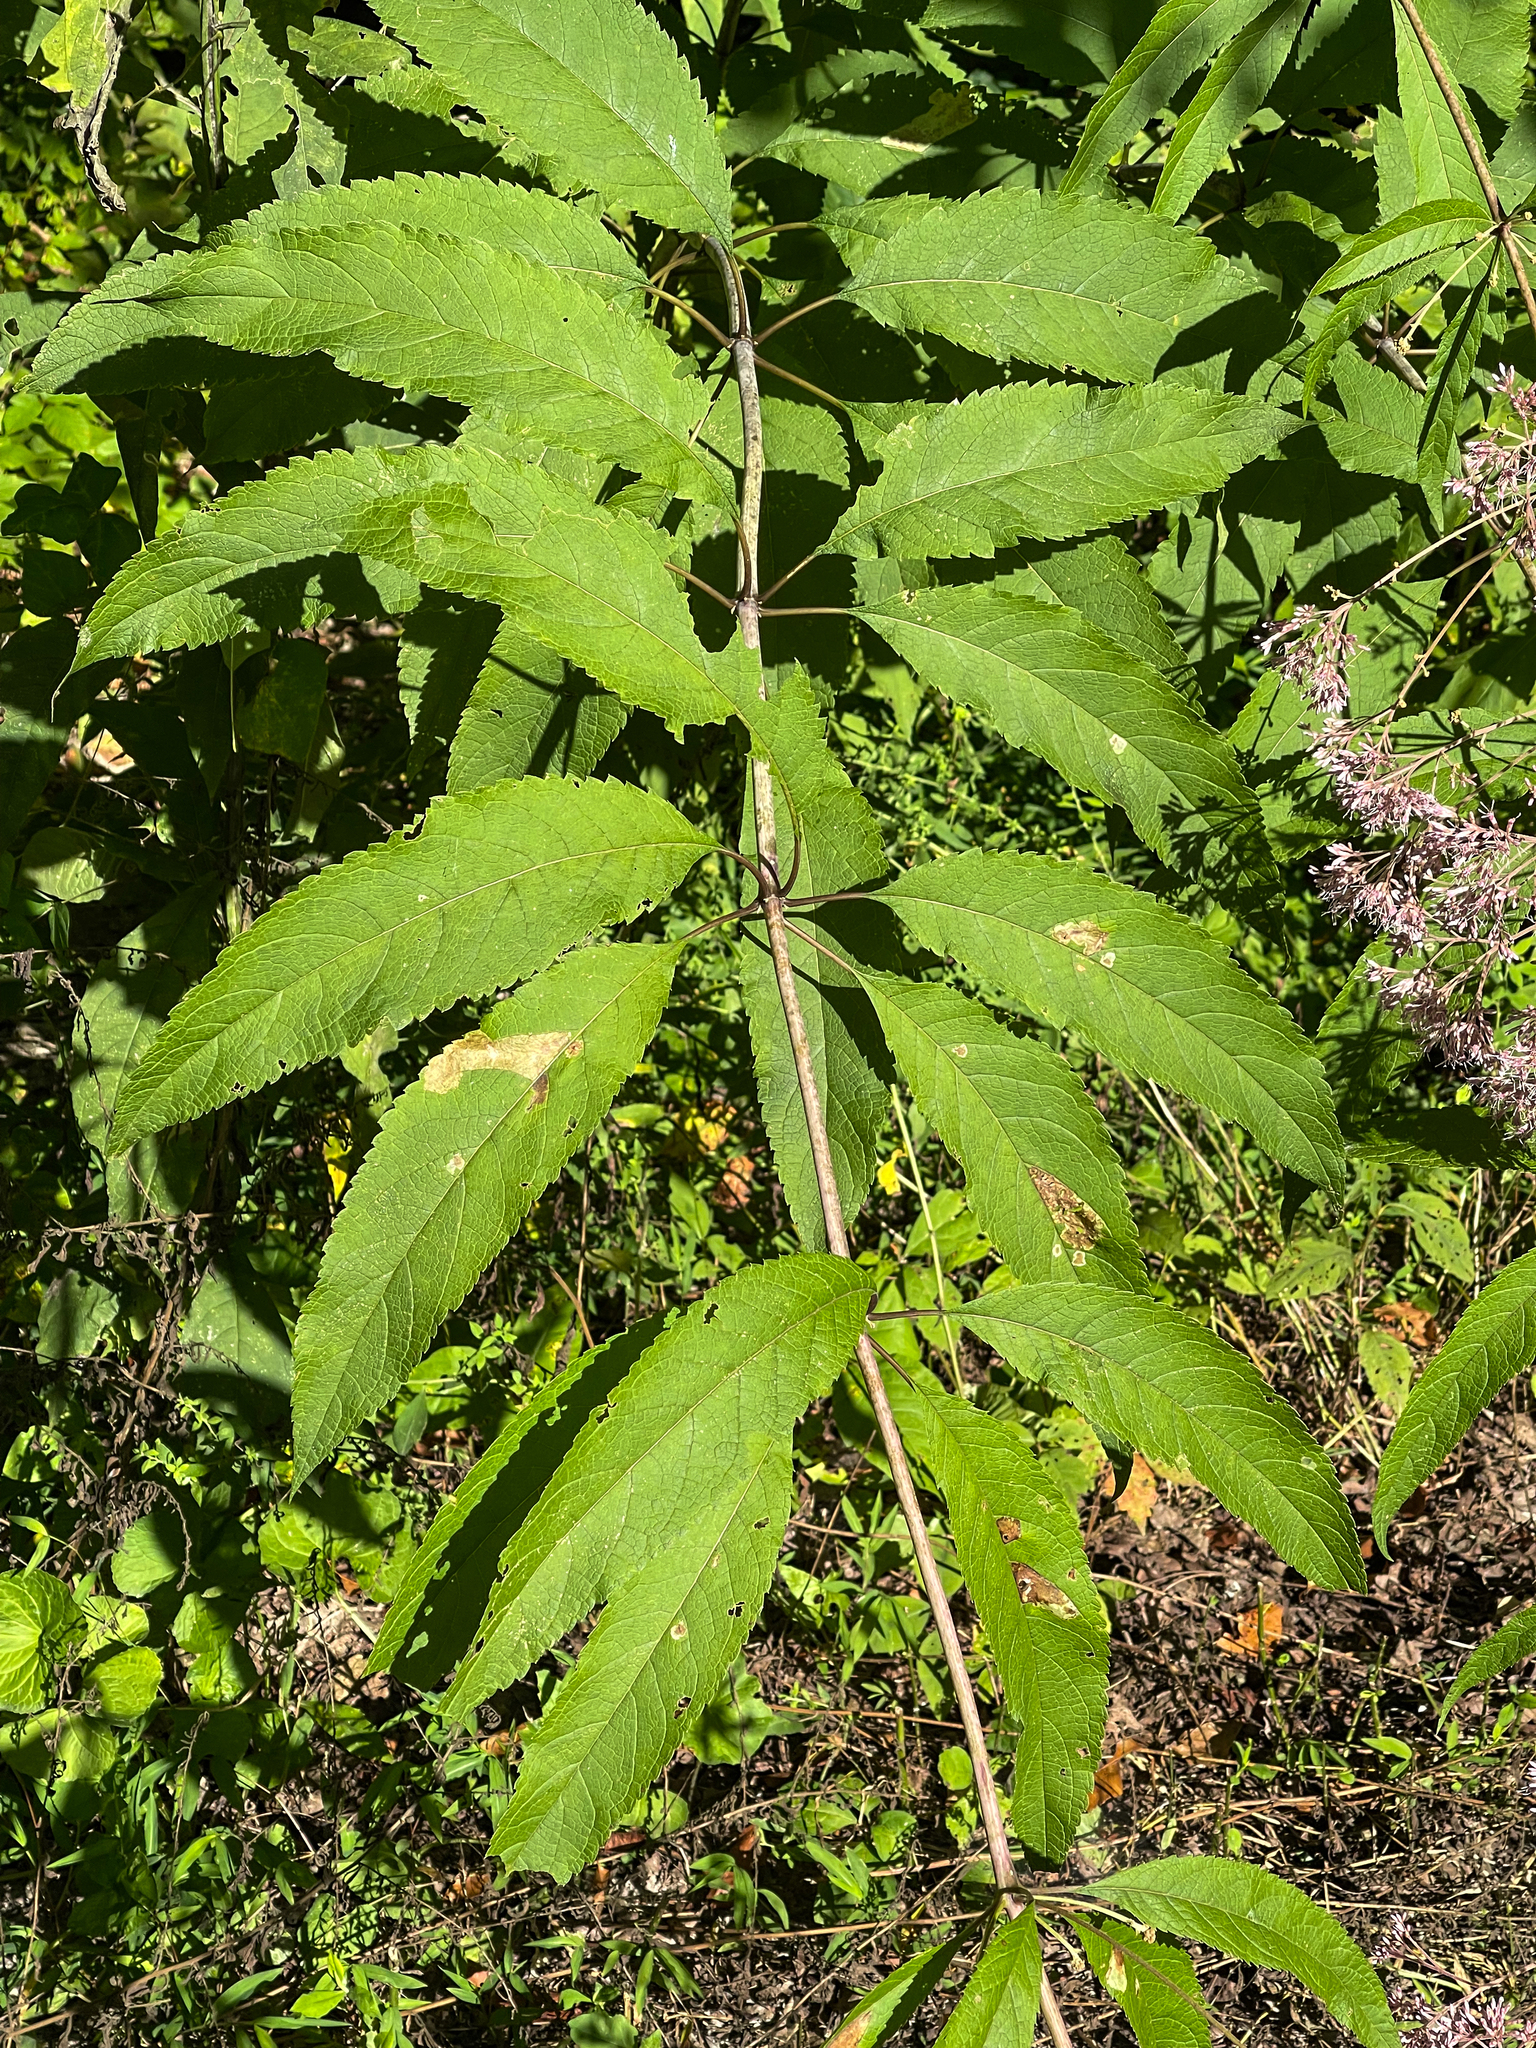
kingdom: Plantae
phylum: Tracheophyta
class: Magnoliopsida
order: Asterales
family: Asteraceae
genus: Eutrochium
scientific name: Eutrochium fistulosum
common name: Trumpetweed
